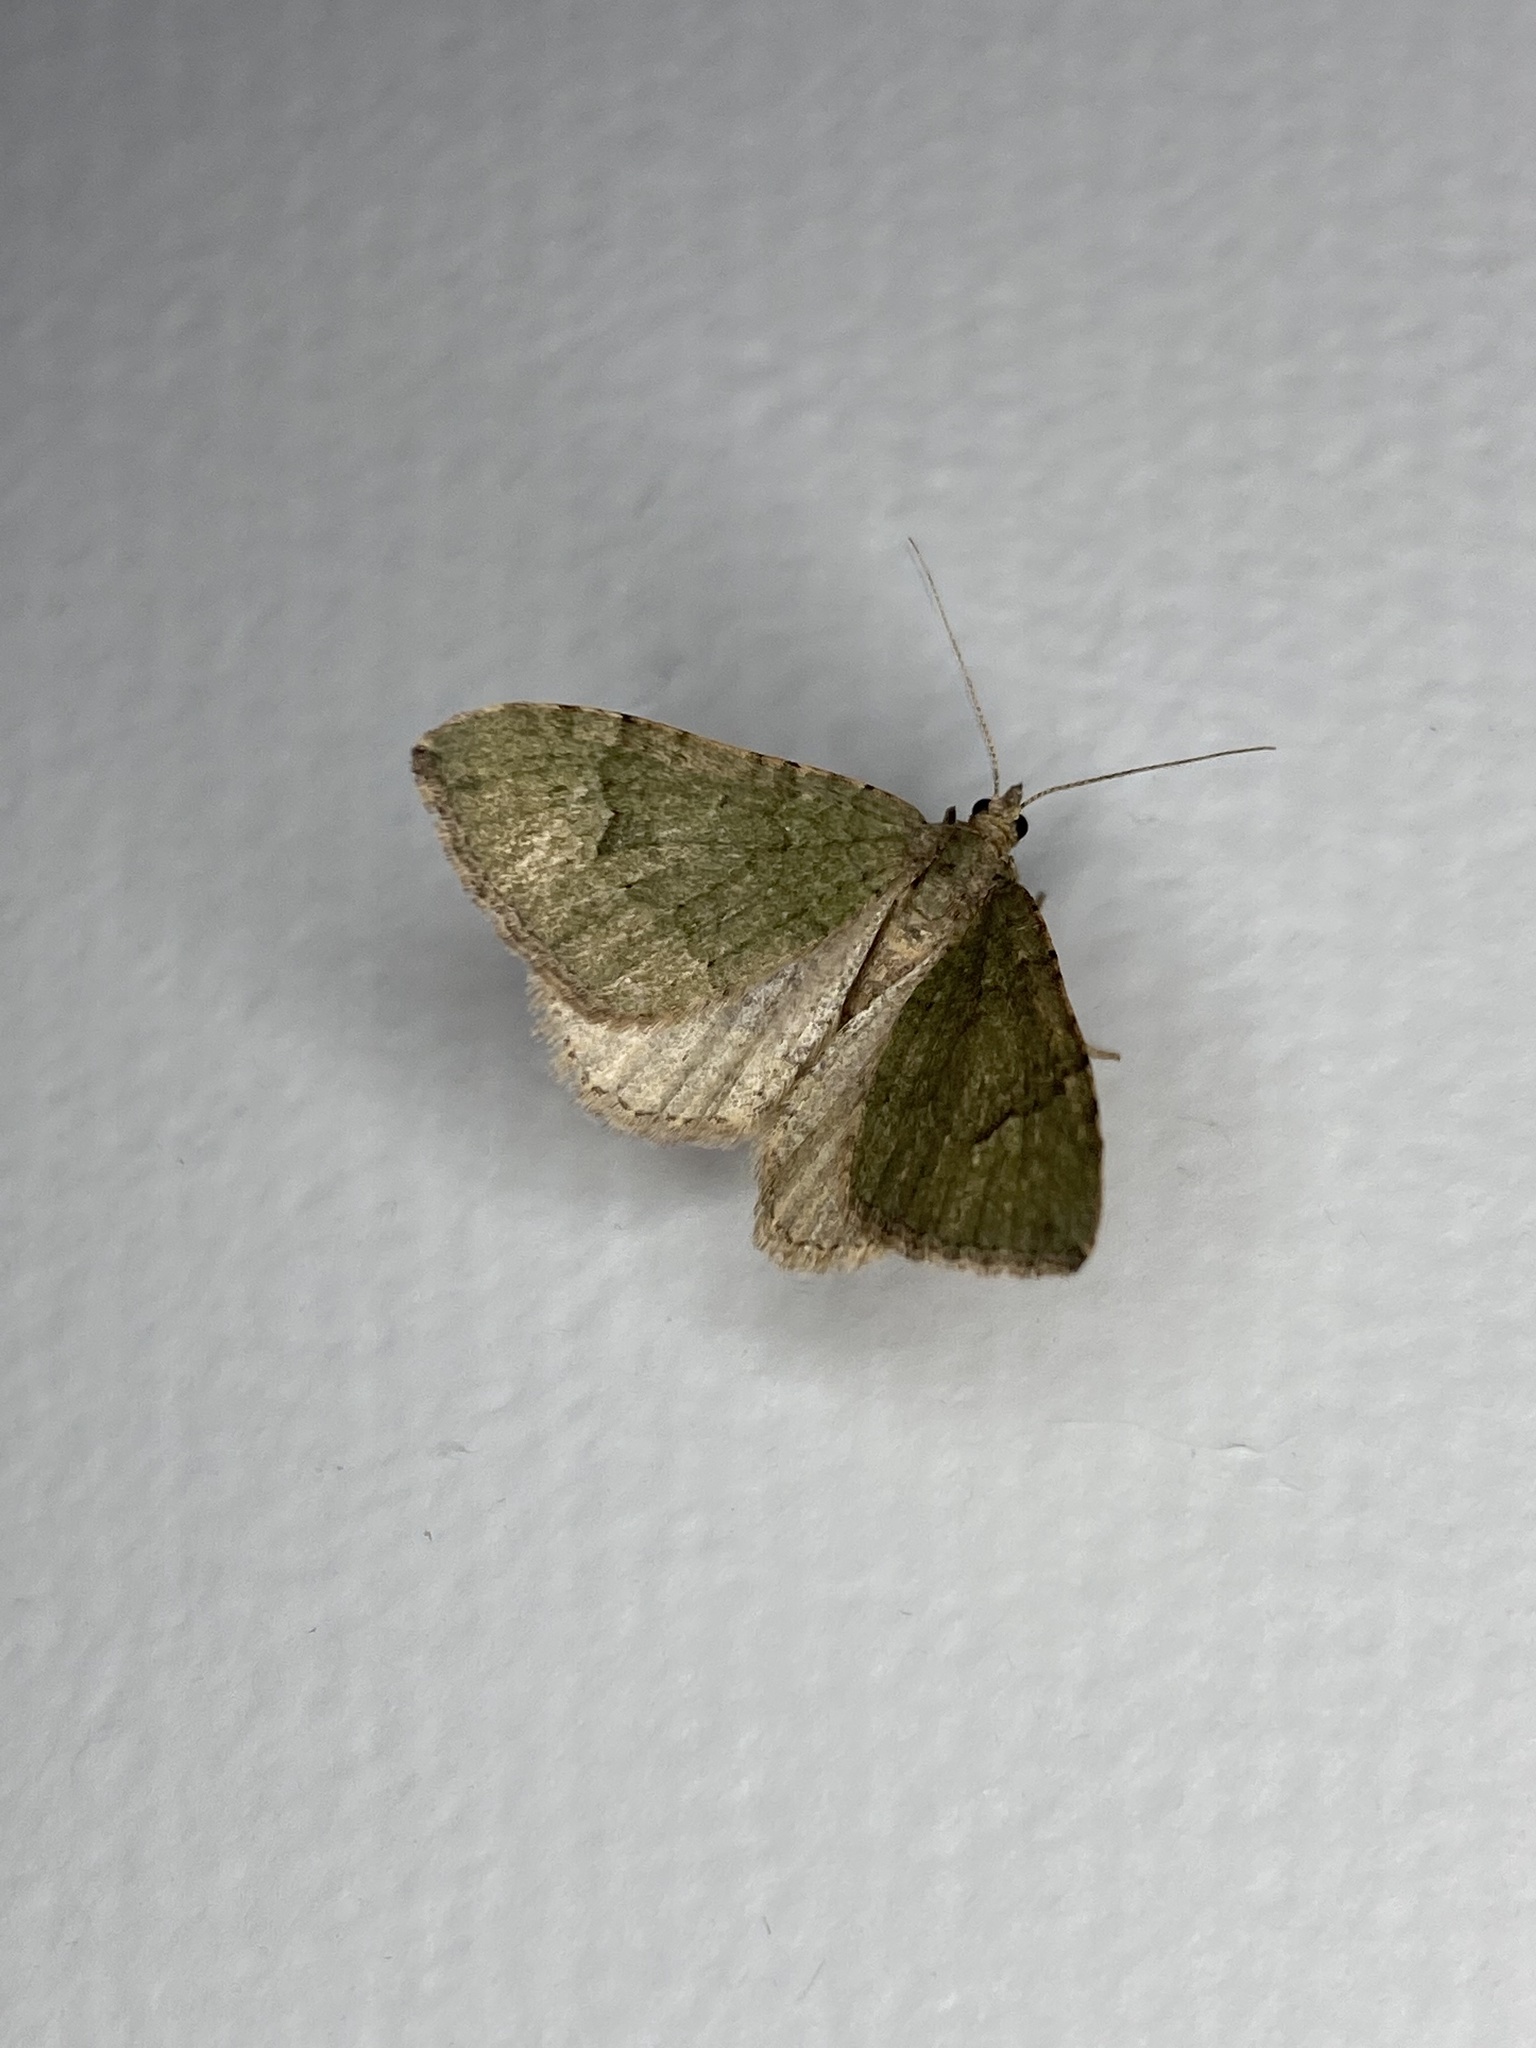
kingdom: Animalia
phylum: Arthropoda
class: Insecta
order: Lepidoptera
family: Geometridae
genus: Epyaxa
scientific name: Epyaxa rosearia
